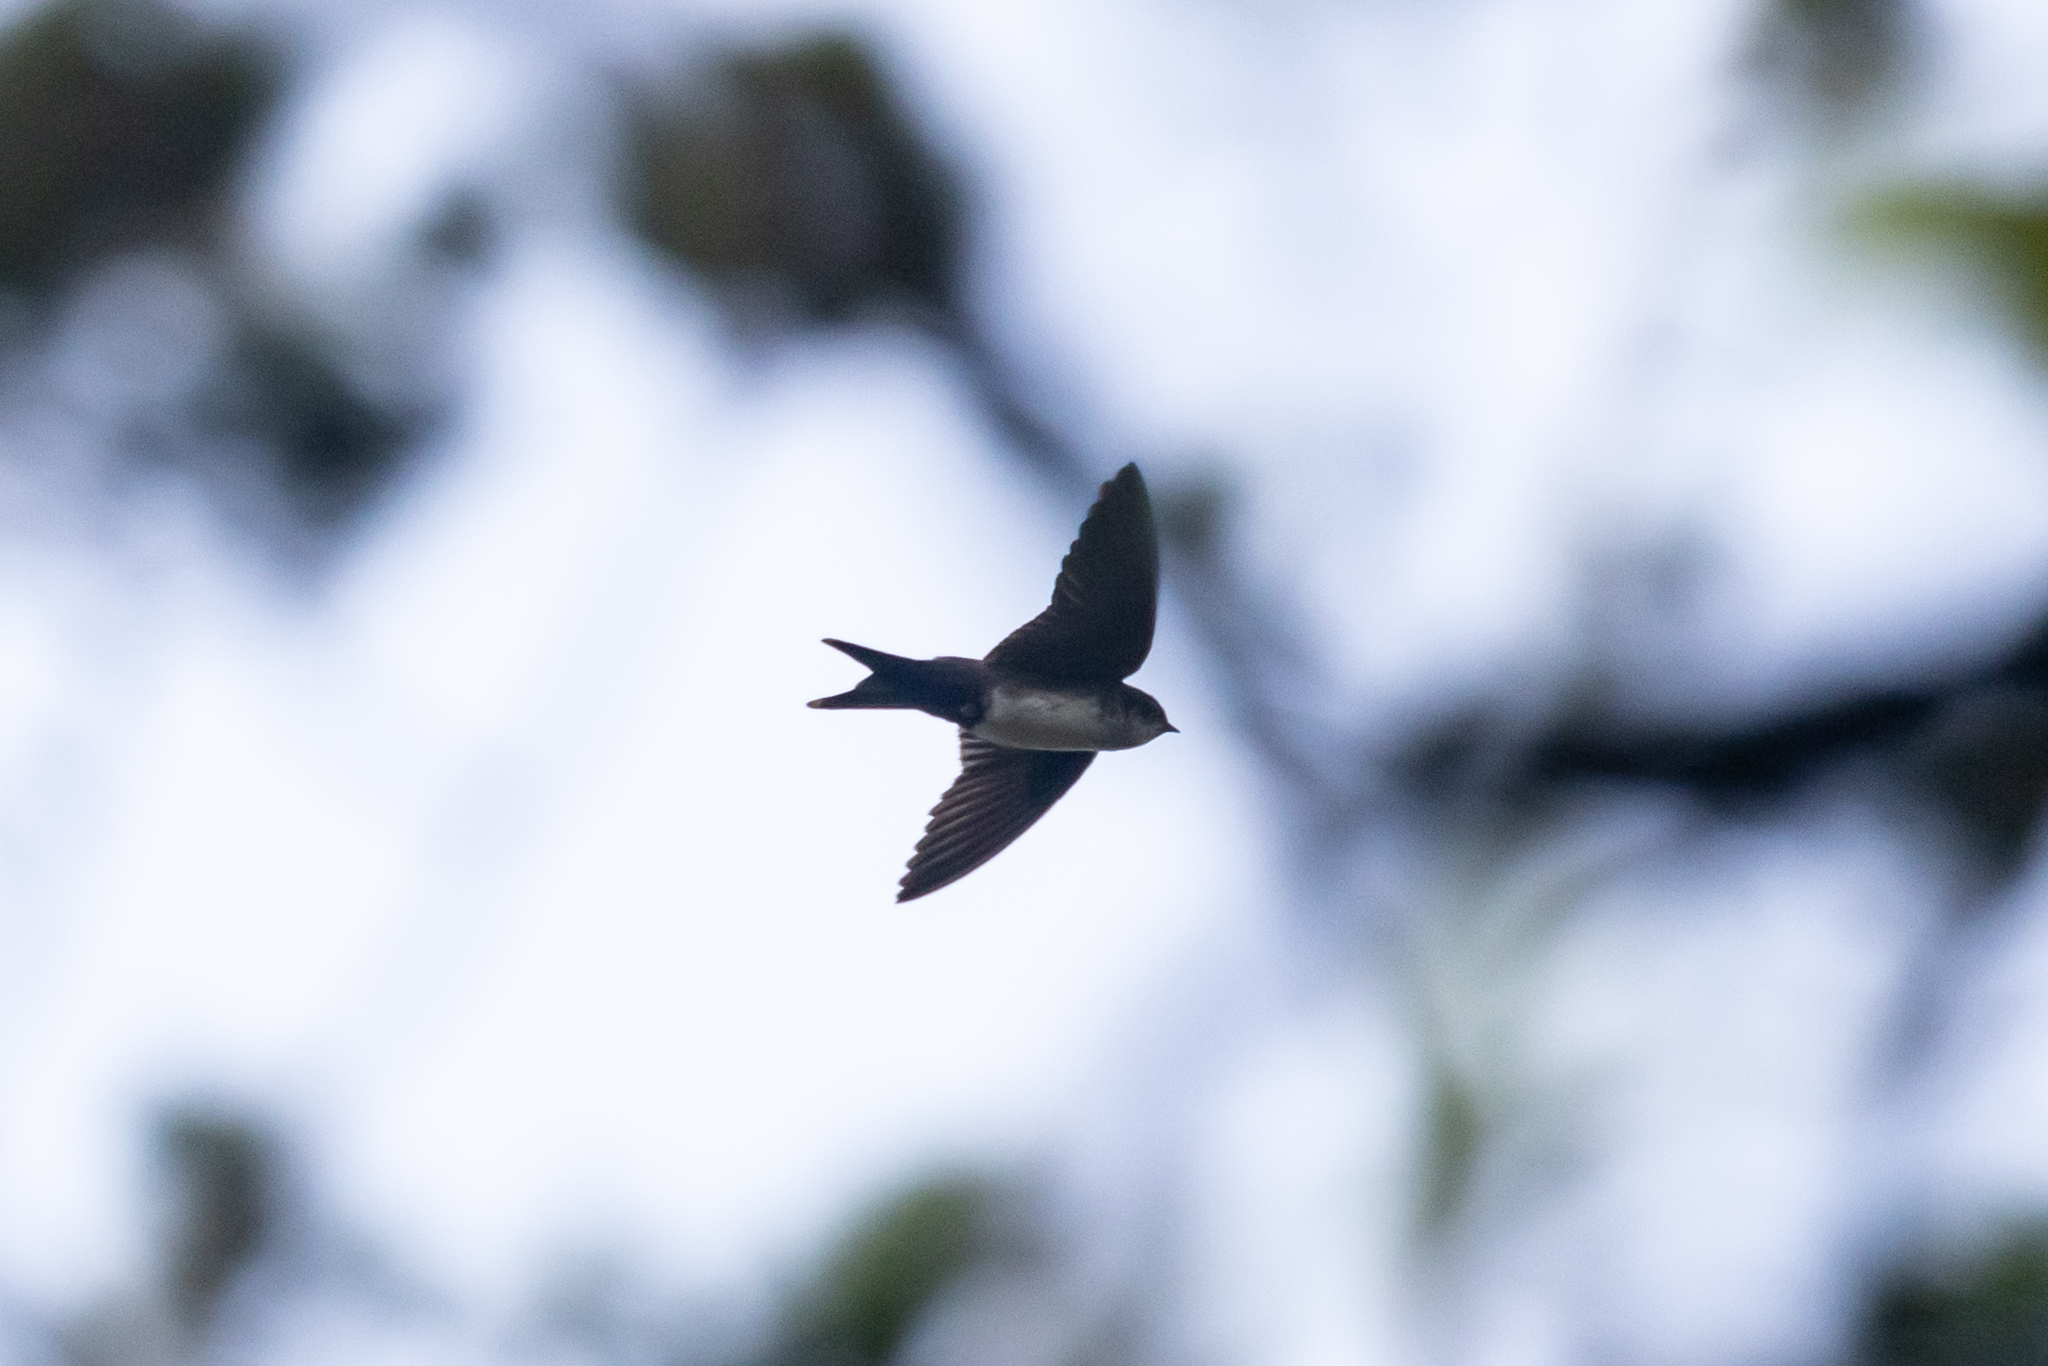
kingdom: Animalia
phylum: Chordata
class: Aves
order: Passeriformes
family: Hirundinidae
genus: Notiochelidon
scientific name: Notiochelidon pileata
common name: Black-capped swallow
